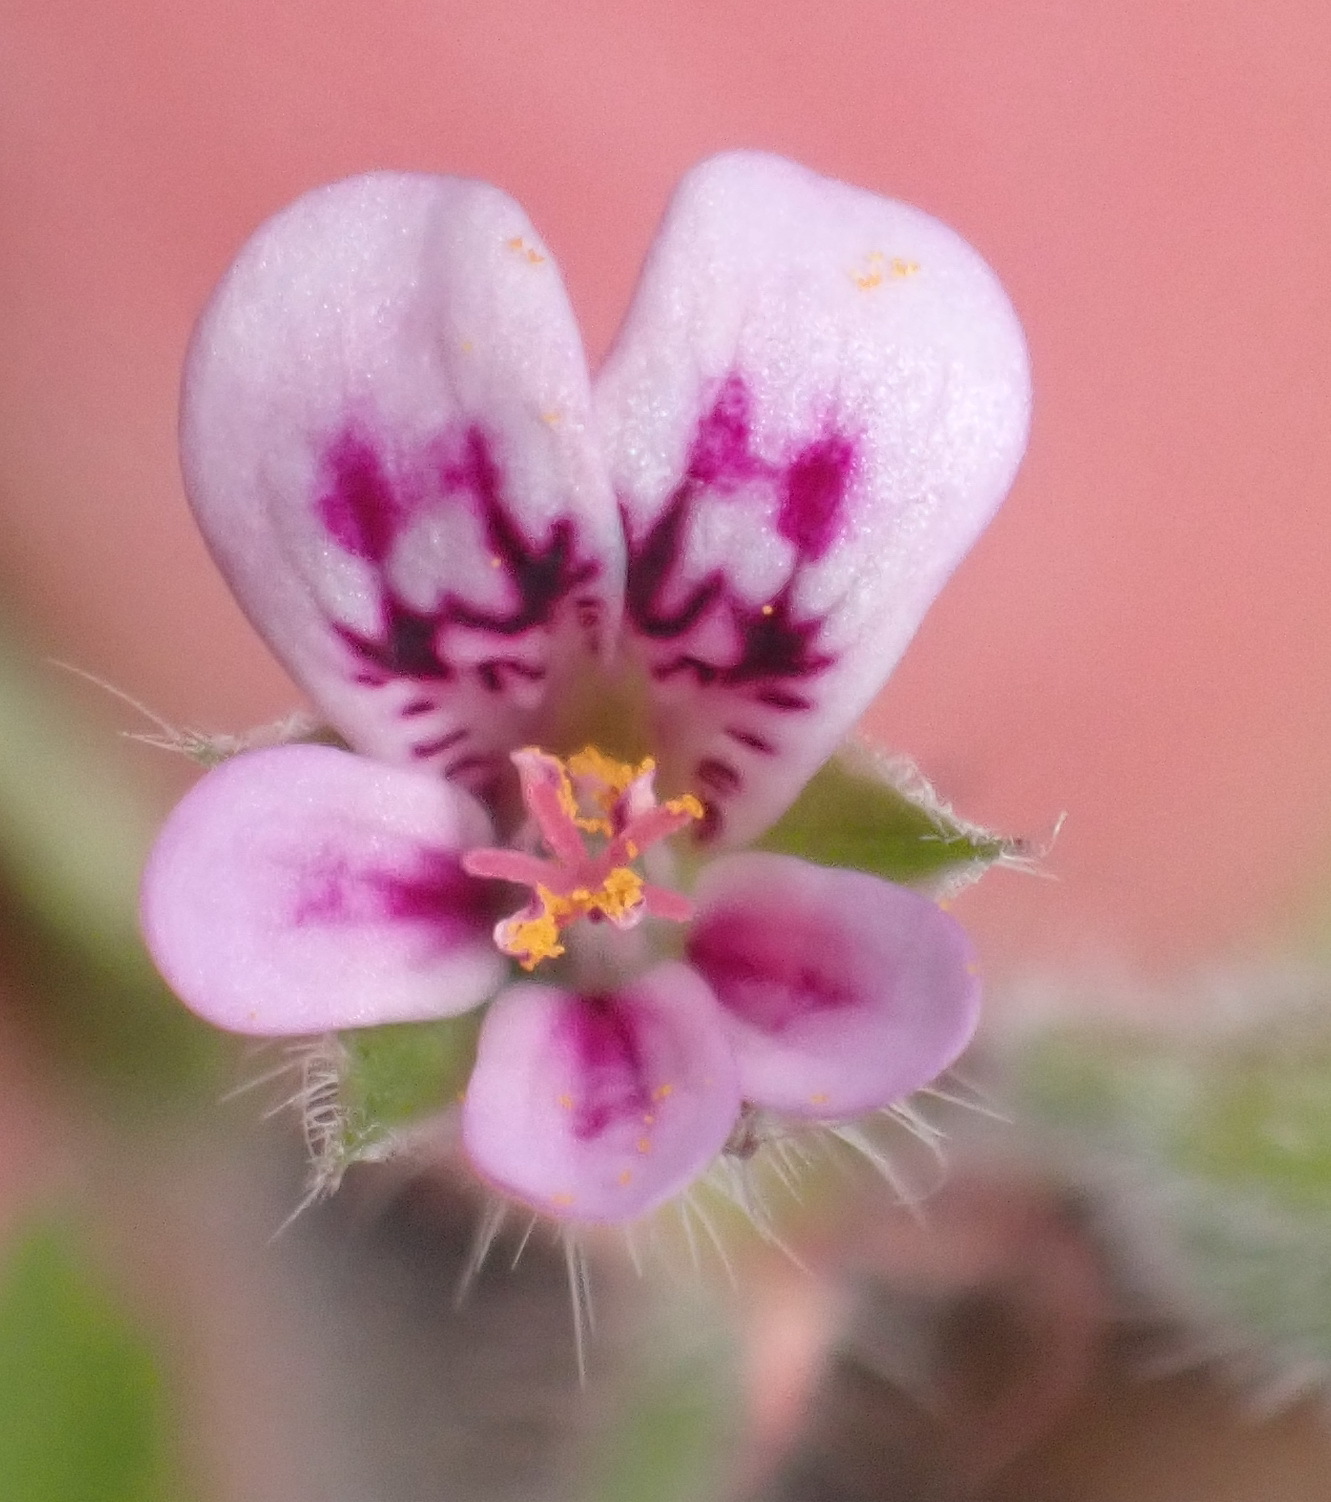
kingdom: Plantae
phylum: Tracheophyta
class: Magnoliopsida
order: Geraniales
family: Geraniaceae
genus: Pelargonium
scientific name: Pelargonium althaeoides
